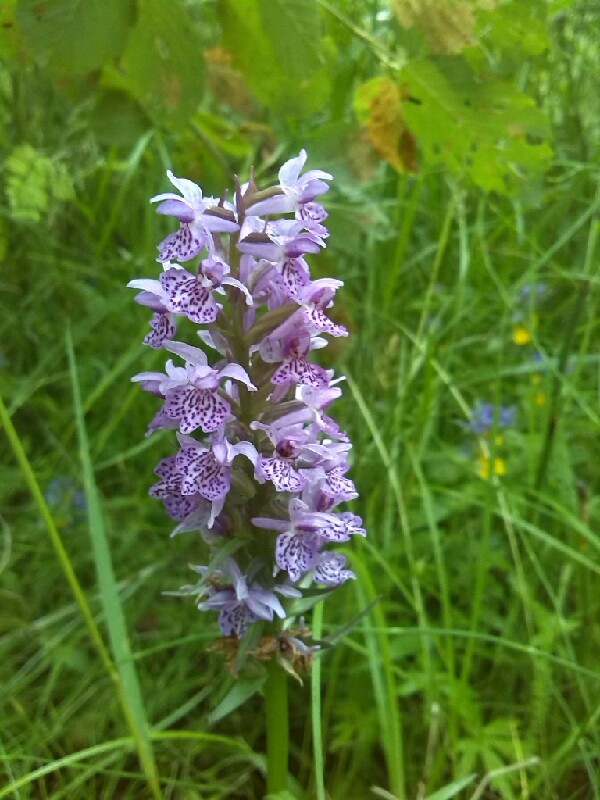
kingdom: Plantae
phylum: Tracheophyta
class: Liliopsida
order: Asparagales
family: Orchidaceae
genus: Dactylorhiza
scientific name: Dactylorhiza maculata
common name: Heath spotted-orchid
